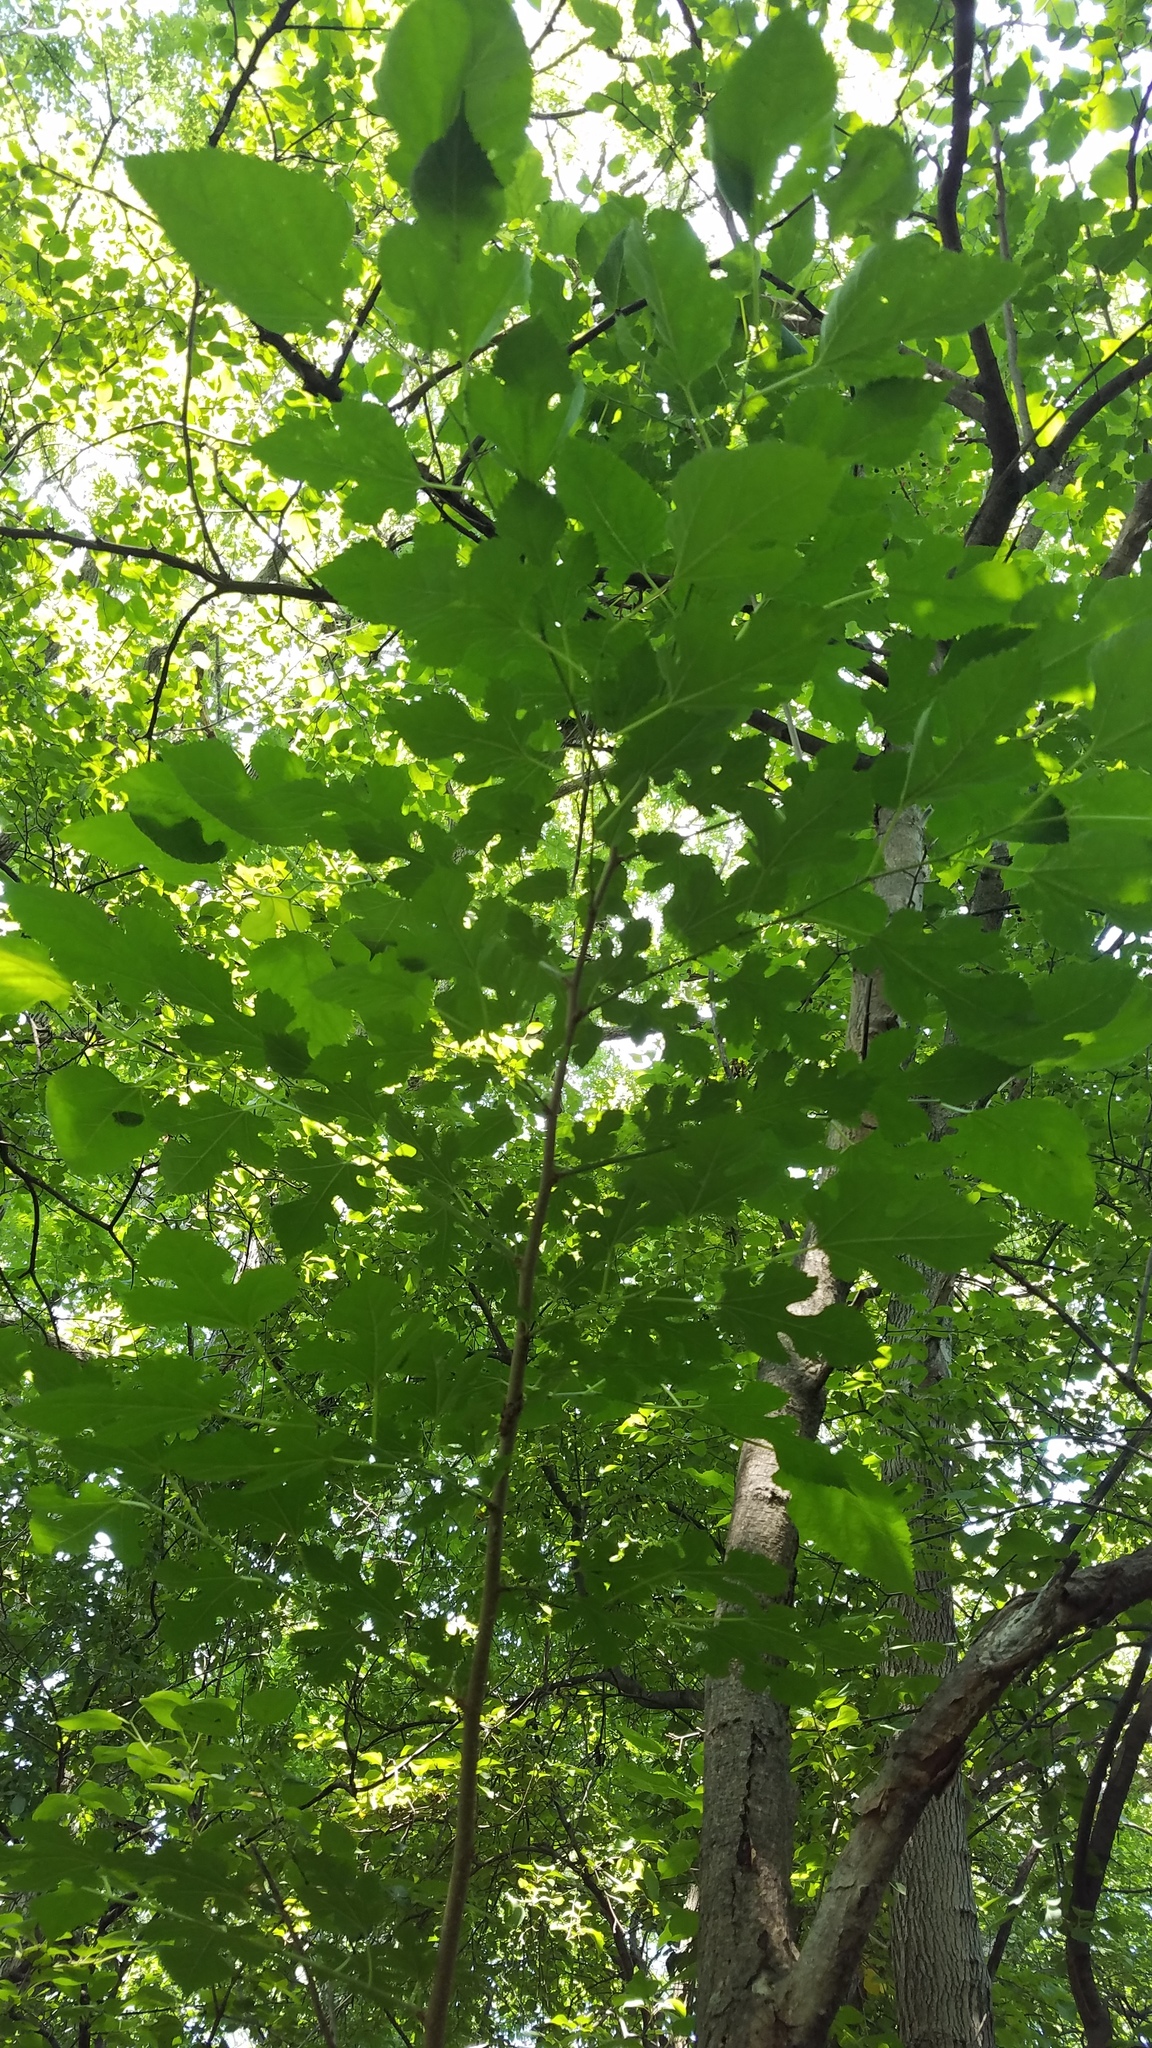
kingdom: Plantae
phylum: Tracheophyta
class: Magnoliopsida
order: Rosales
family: Moraceae
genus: Morus
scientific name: Morus alba
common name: White mulberry
